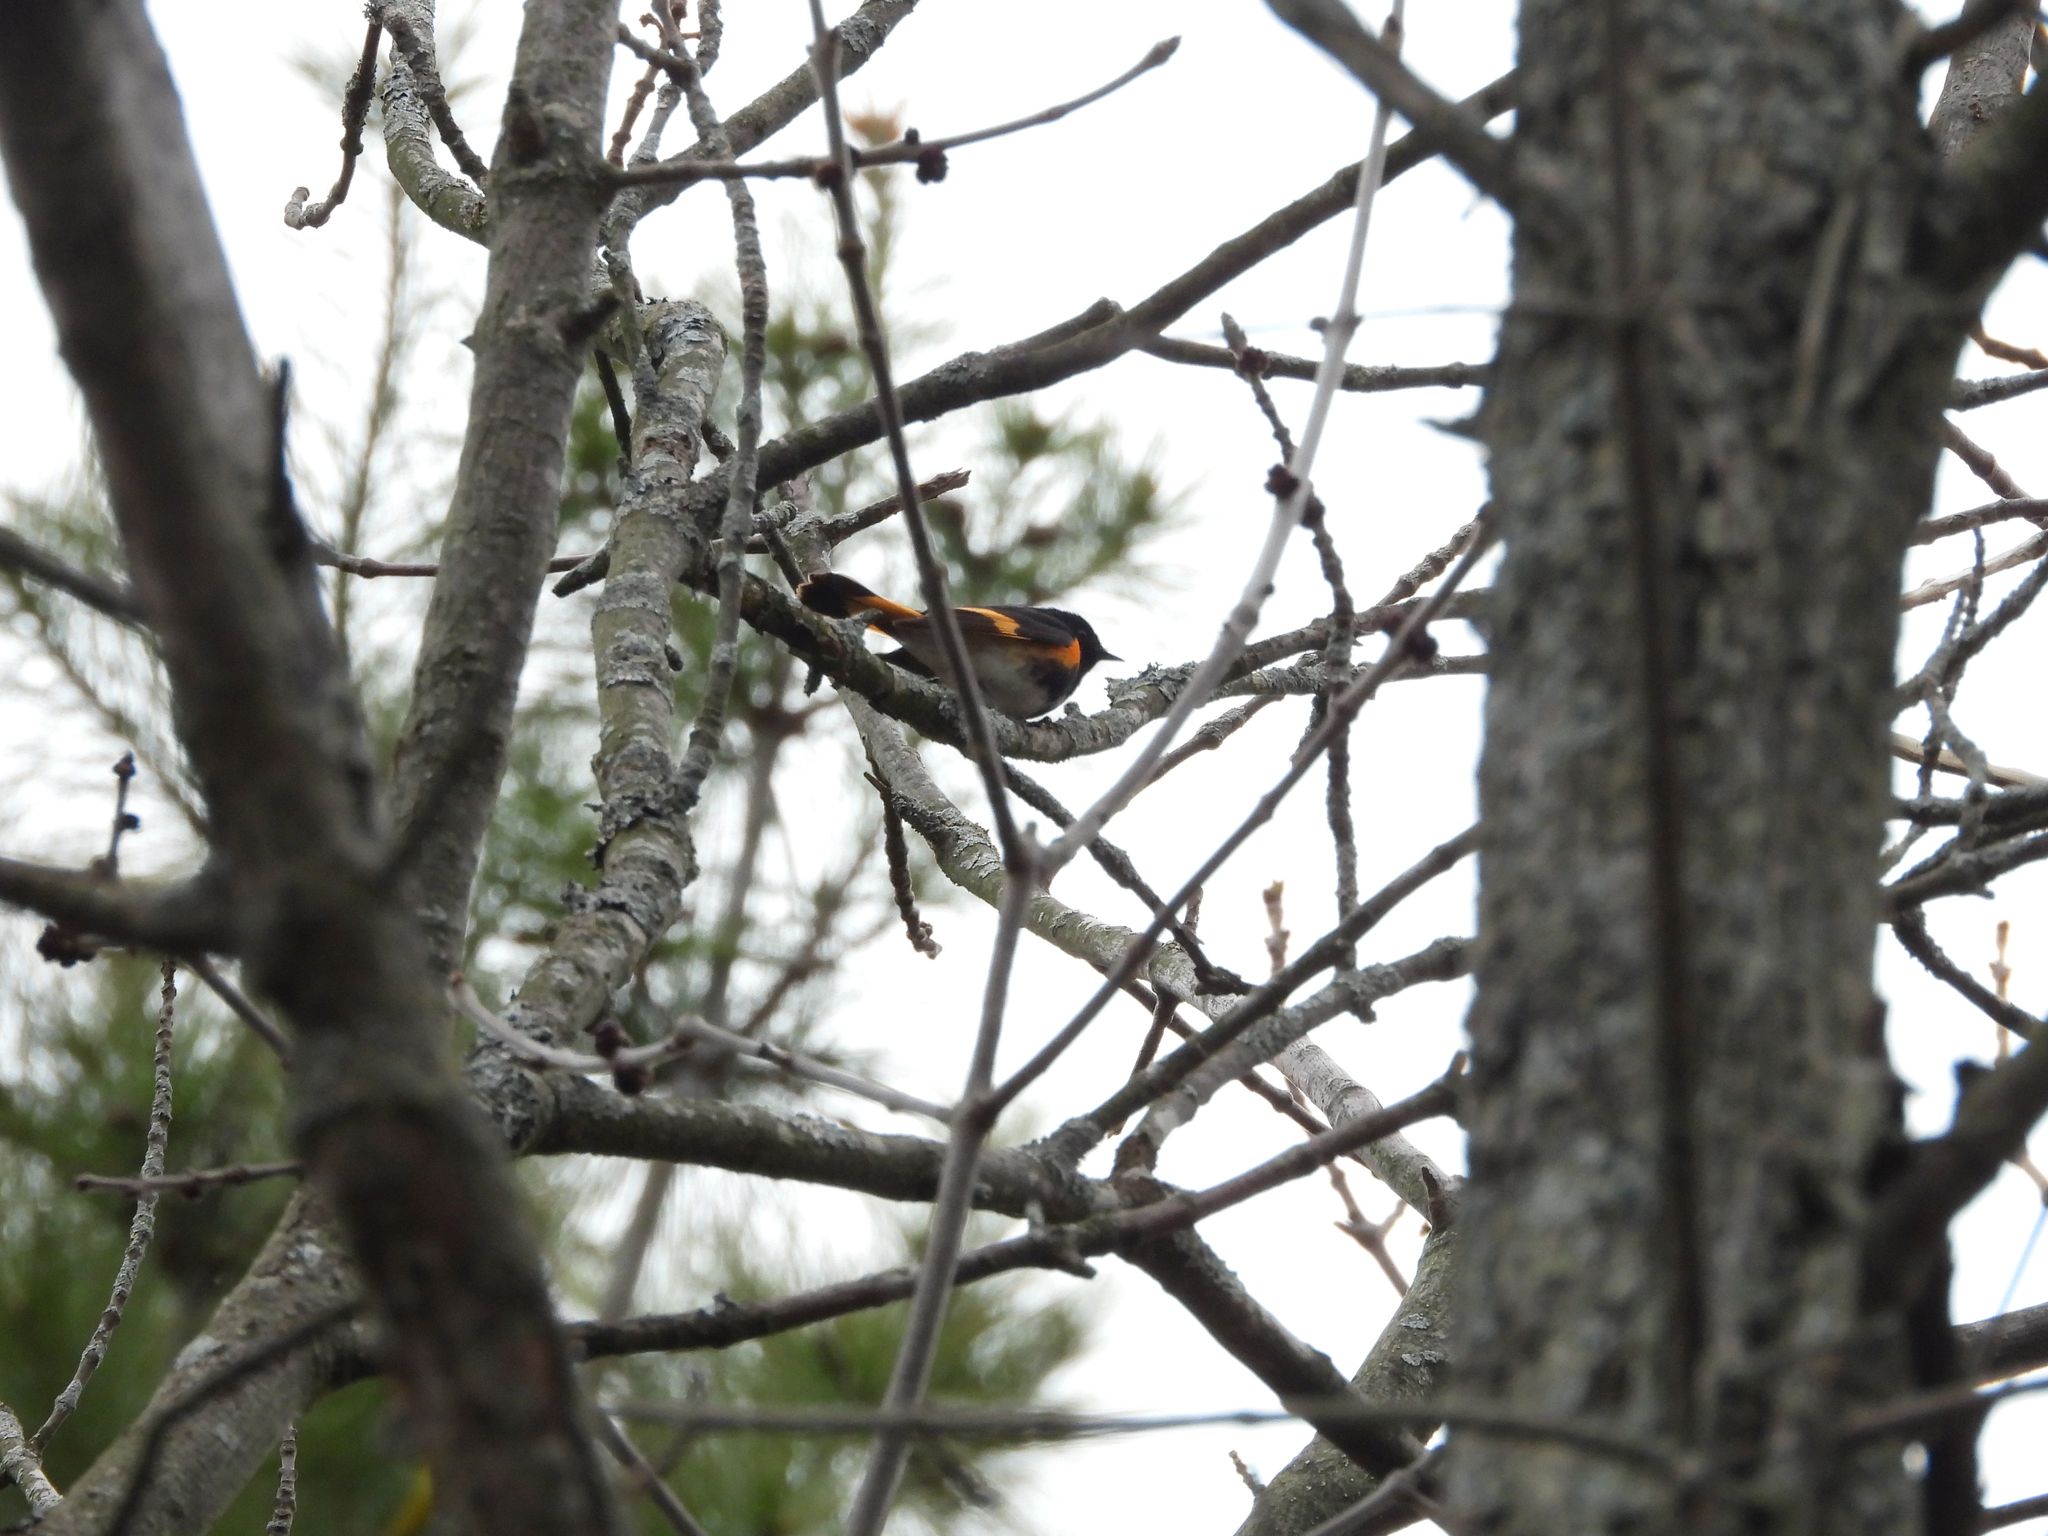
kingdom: Animalia
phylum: Chordata
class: Aves
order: Passeriformes
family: Parulidae
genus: Setophaga
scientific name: Setophaga ruticilla
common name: American redstart
